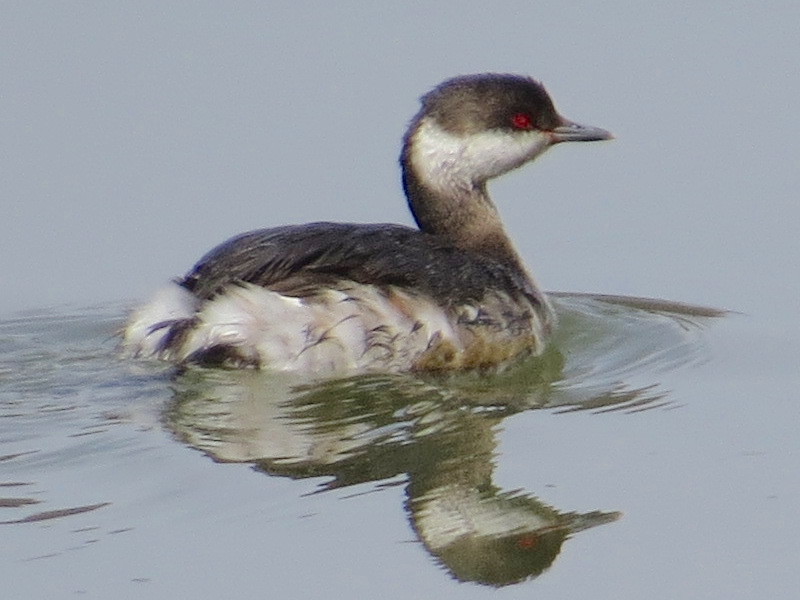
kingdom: Animalia
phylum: Chordata
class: Aves
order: Podicipediformes
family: Podicipedidae
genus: Podiceps
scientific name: Podiceps auritus
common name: Horned grebe
